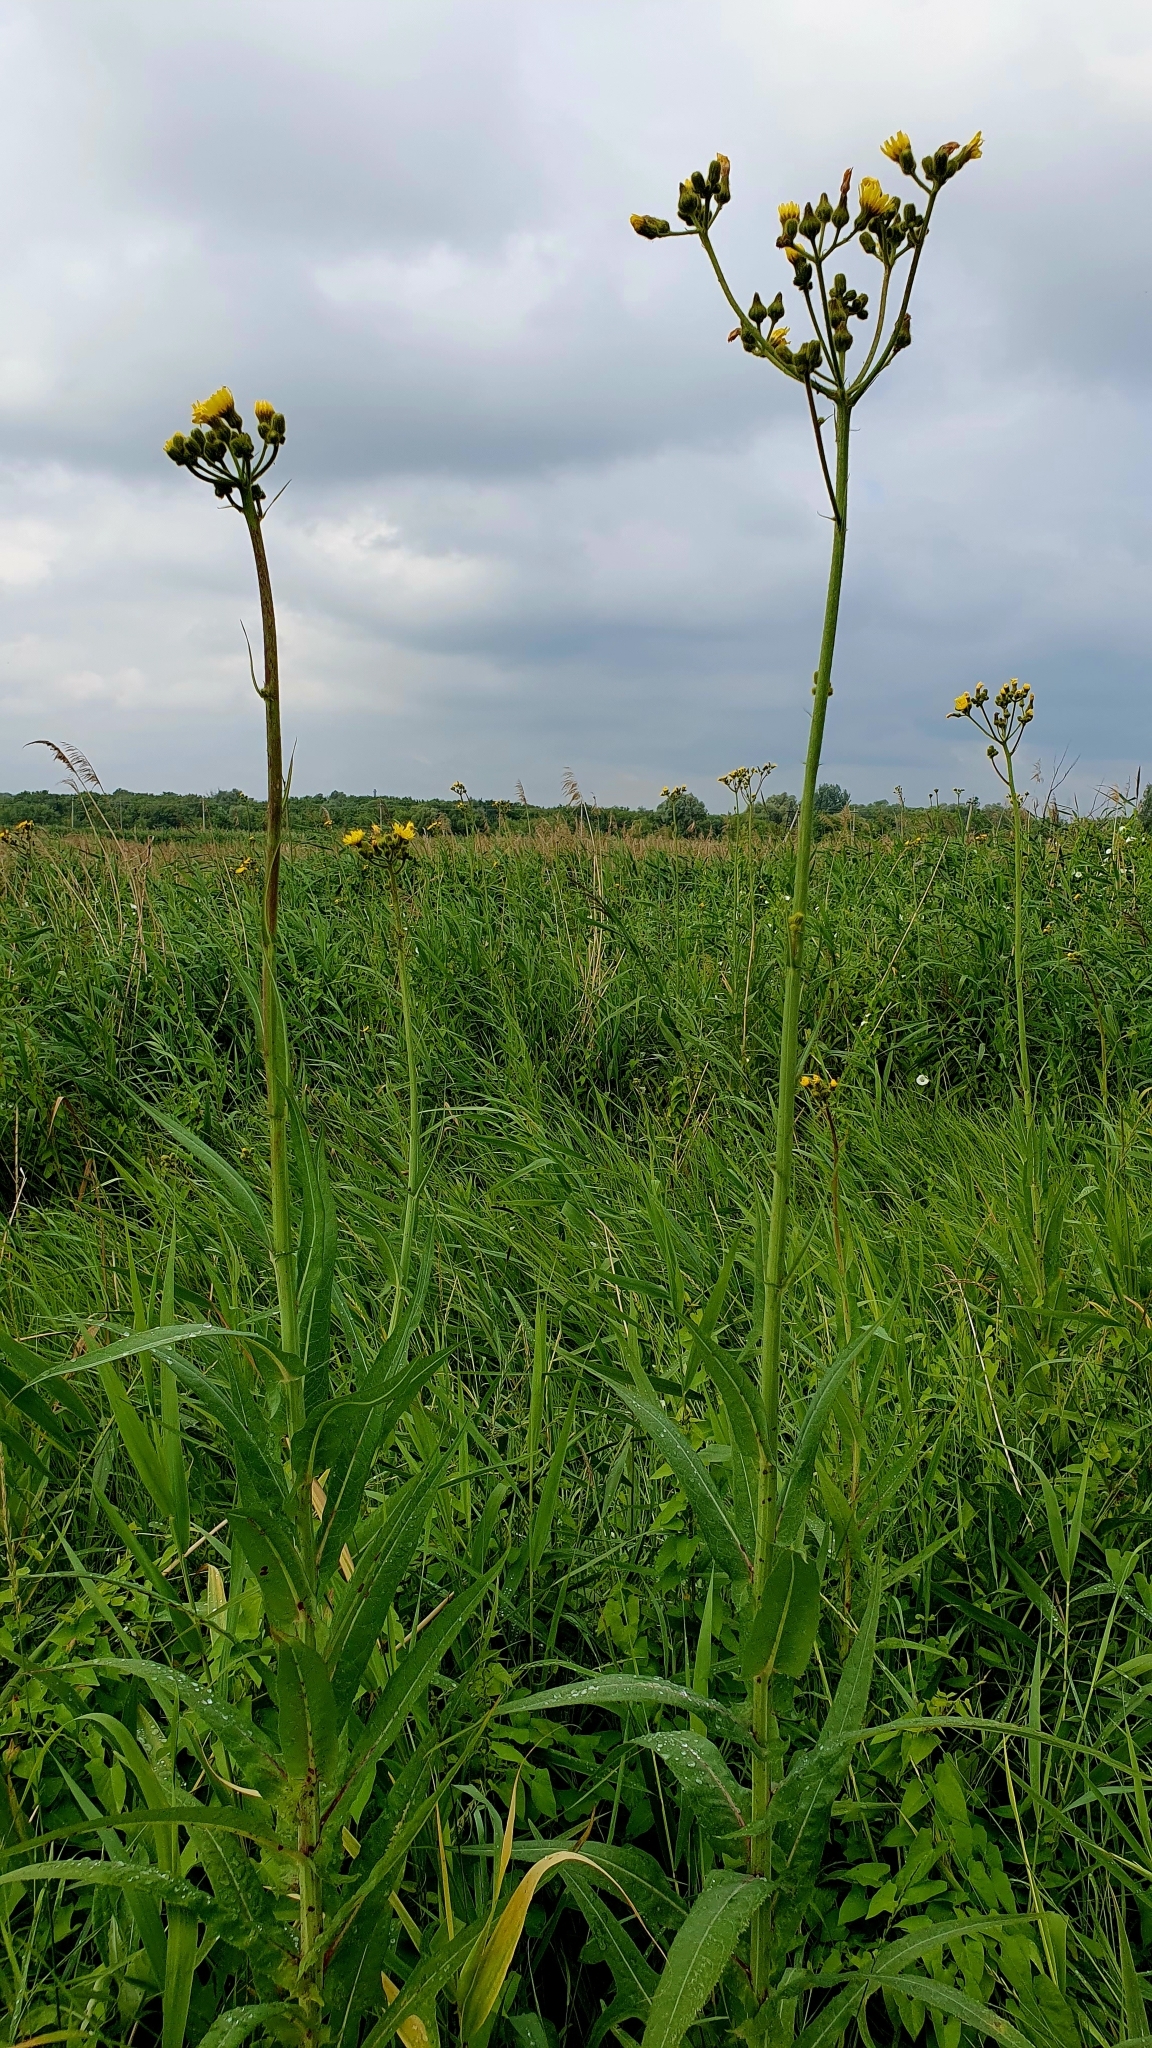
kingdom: Plantae
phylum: Tracheophyta
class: Magnoliopsida
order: Asterales
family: Asteraceae
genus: Sonchus
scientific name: Sonchus palustris
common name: Marsh sow-thistle
